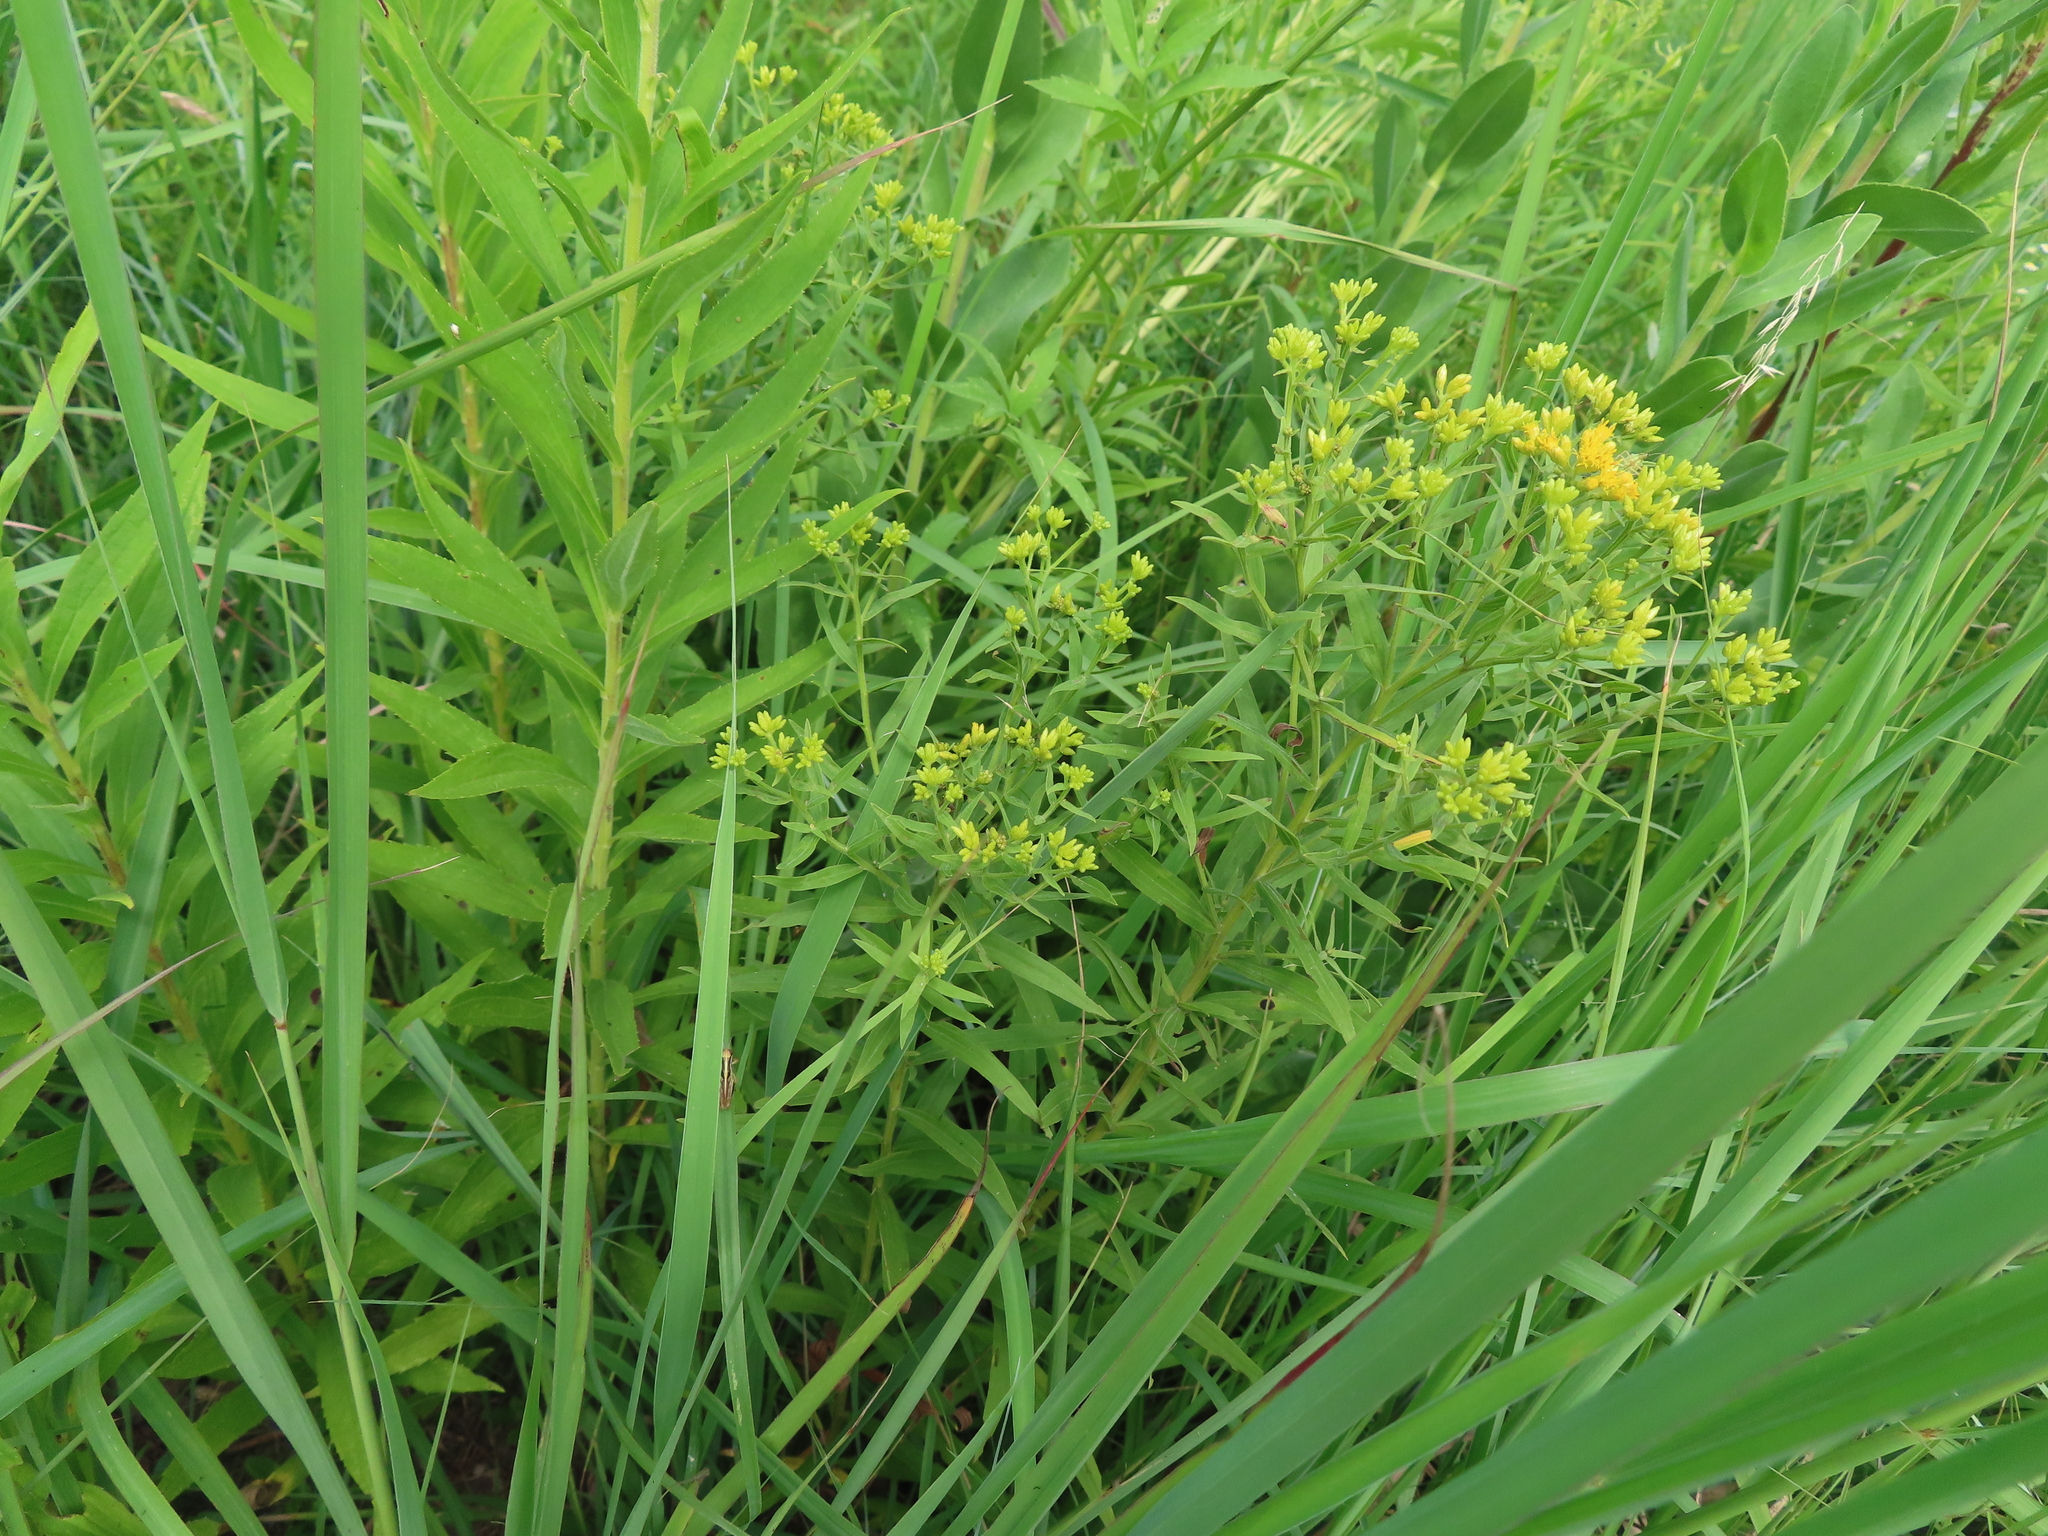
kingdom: Plantae
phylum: Tracheophyta
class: Magnoliopsida
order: Asterales
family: Asteraceae
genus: Euthamia
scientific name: Euthamia graminifolia
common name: Common goldentop
